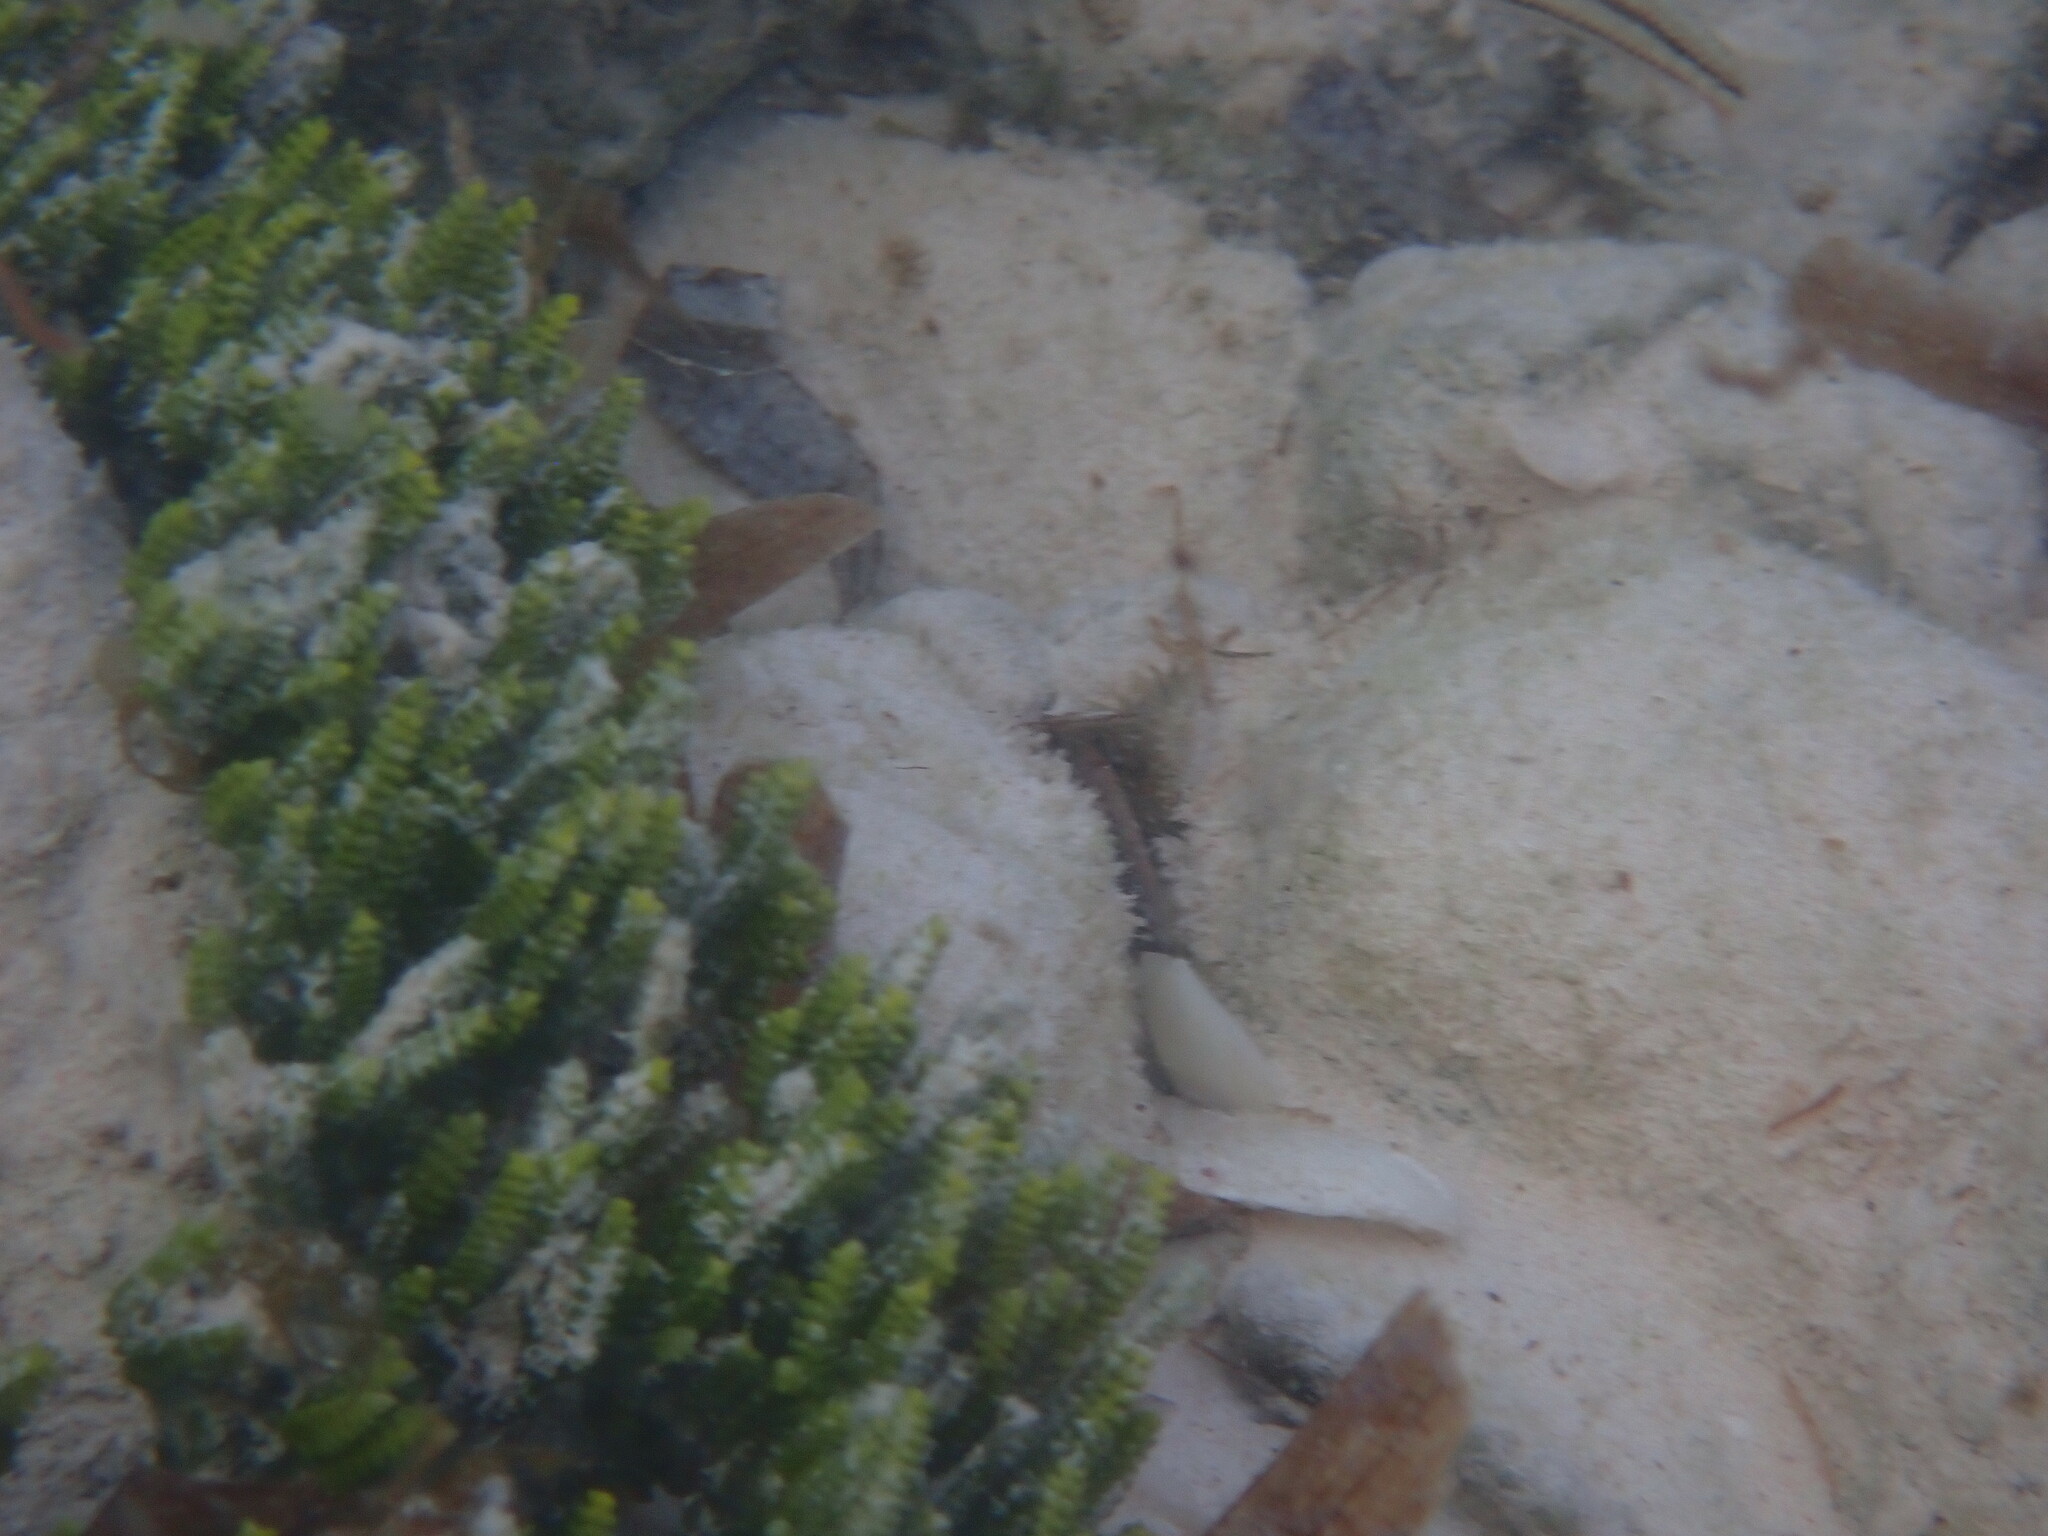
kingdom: Plantae
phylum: Chlorophyta
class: Ulvophyceae
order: Bryopsidales
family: Caulerpaceae
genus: Caulerpa
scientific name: Caulerpa cupressoides
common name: Cactus tree algae
